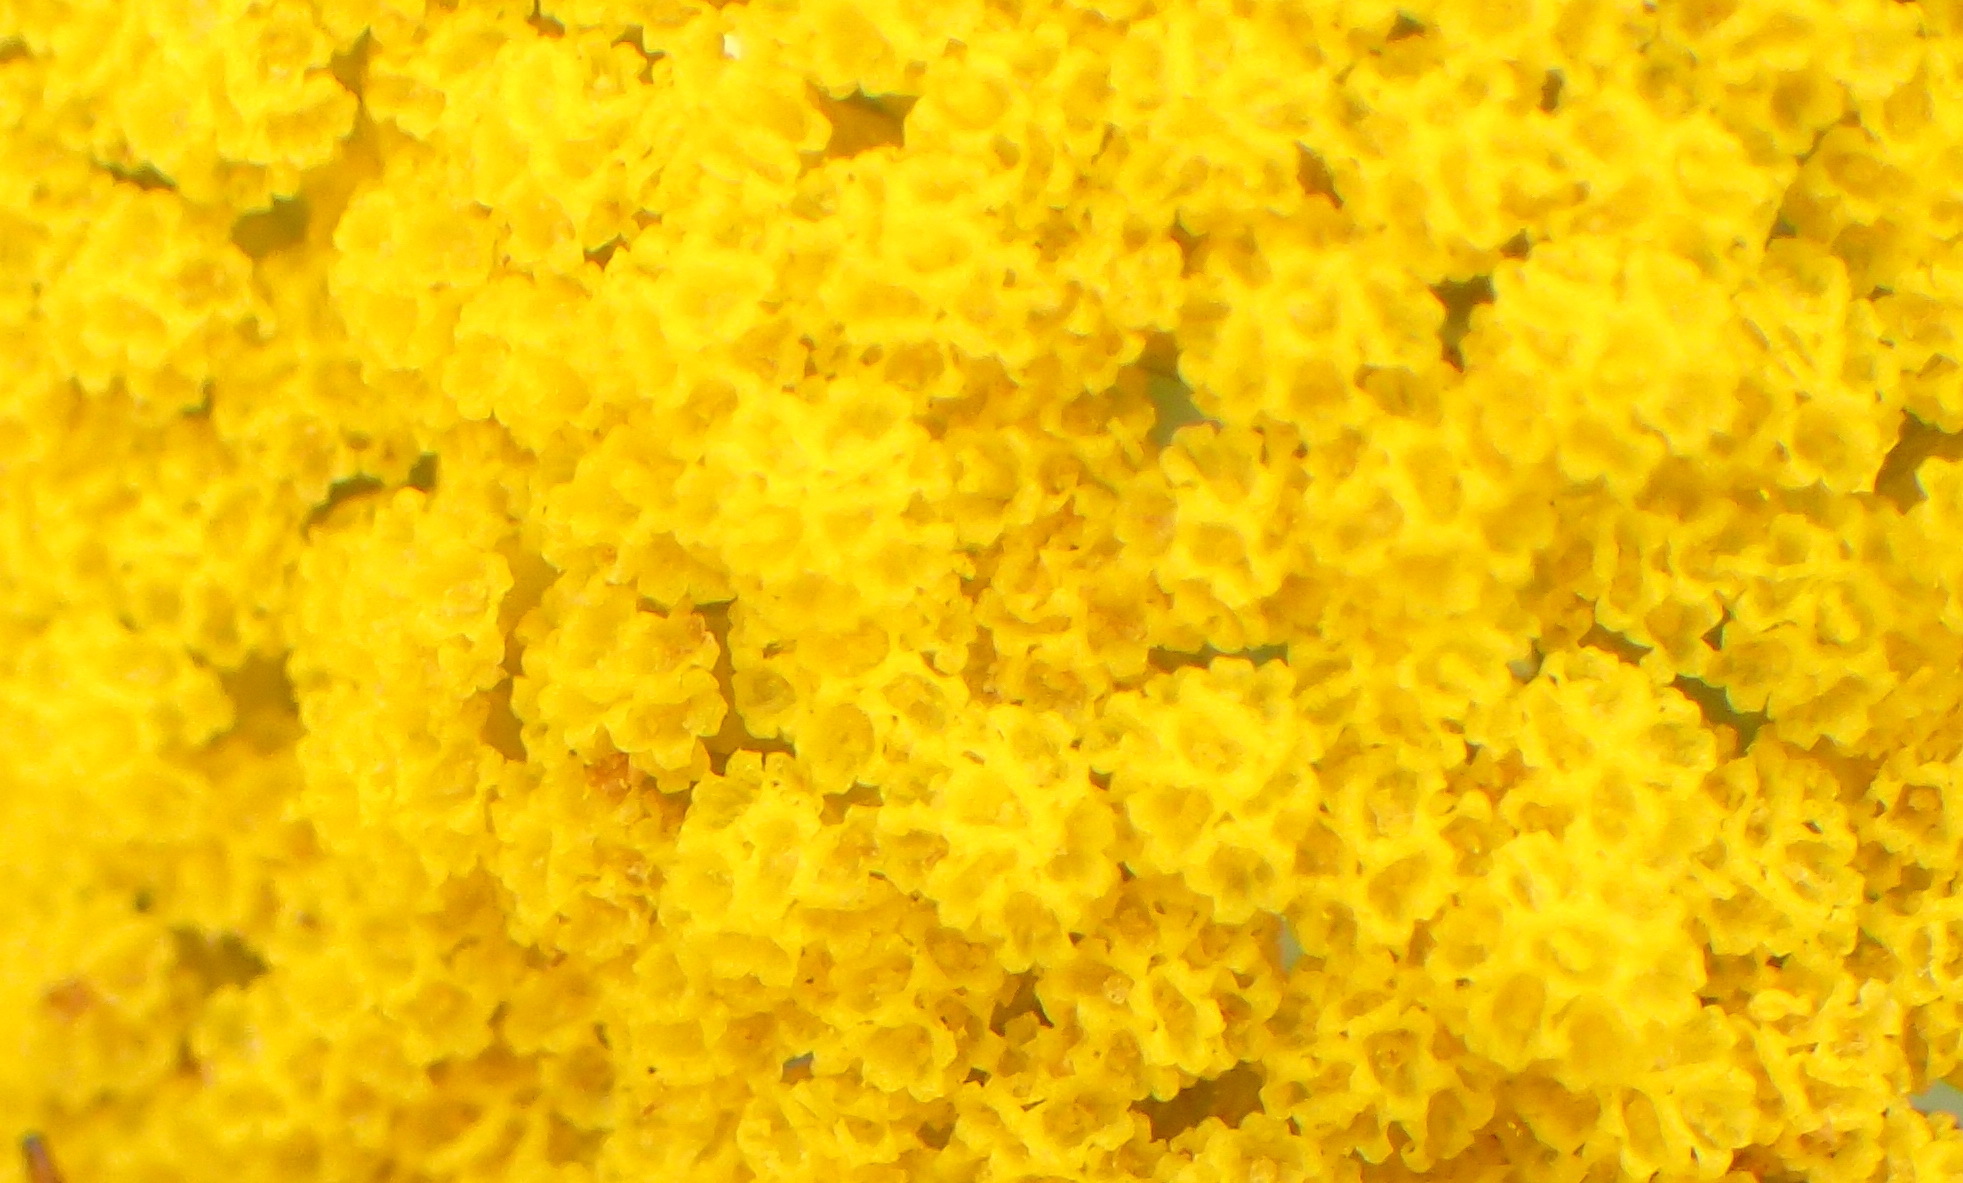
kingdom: Plantae
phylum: Tracheophyta
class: Magnoliopsida
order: Asterales
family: Asteraceae
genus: Helichrysum
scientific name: Helichrysum cymosum
